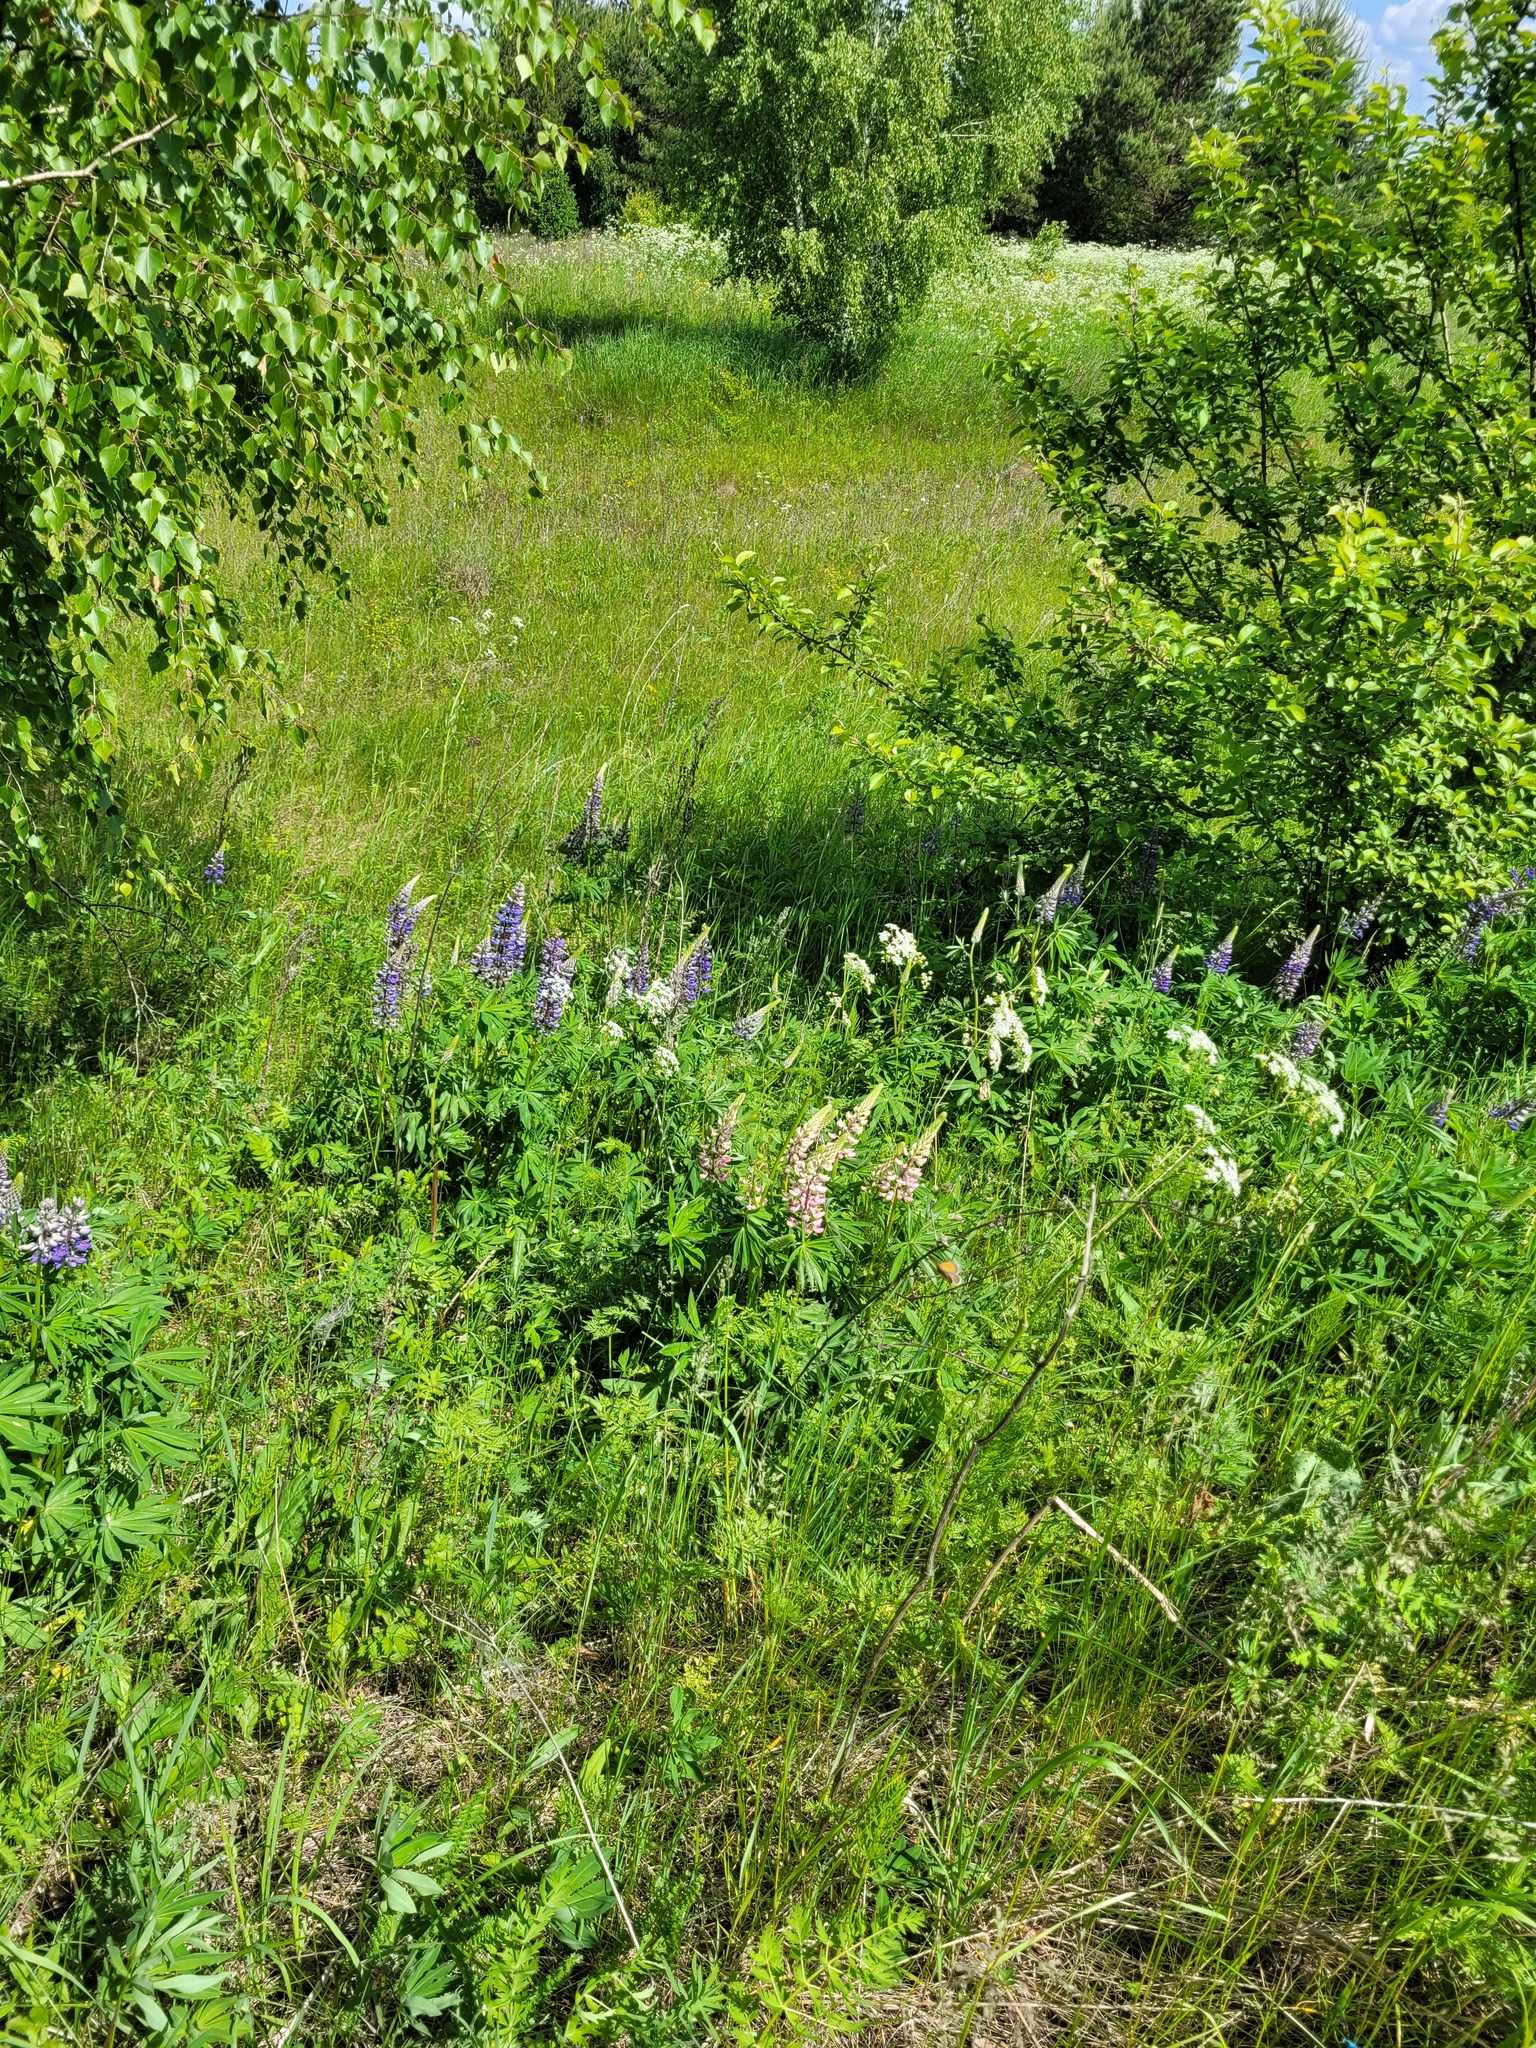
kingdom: Plantae
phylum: Tracheophyta
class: Magnoliopsida
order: Fabales
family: Fabaceae
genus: Lupinus
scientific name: Lupinus polyphyllus
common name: Garden lupin
